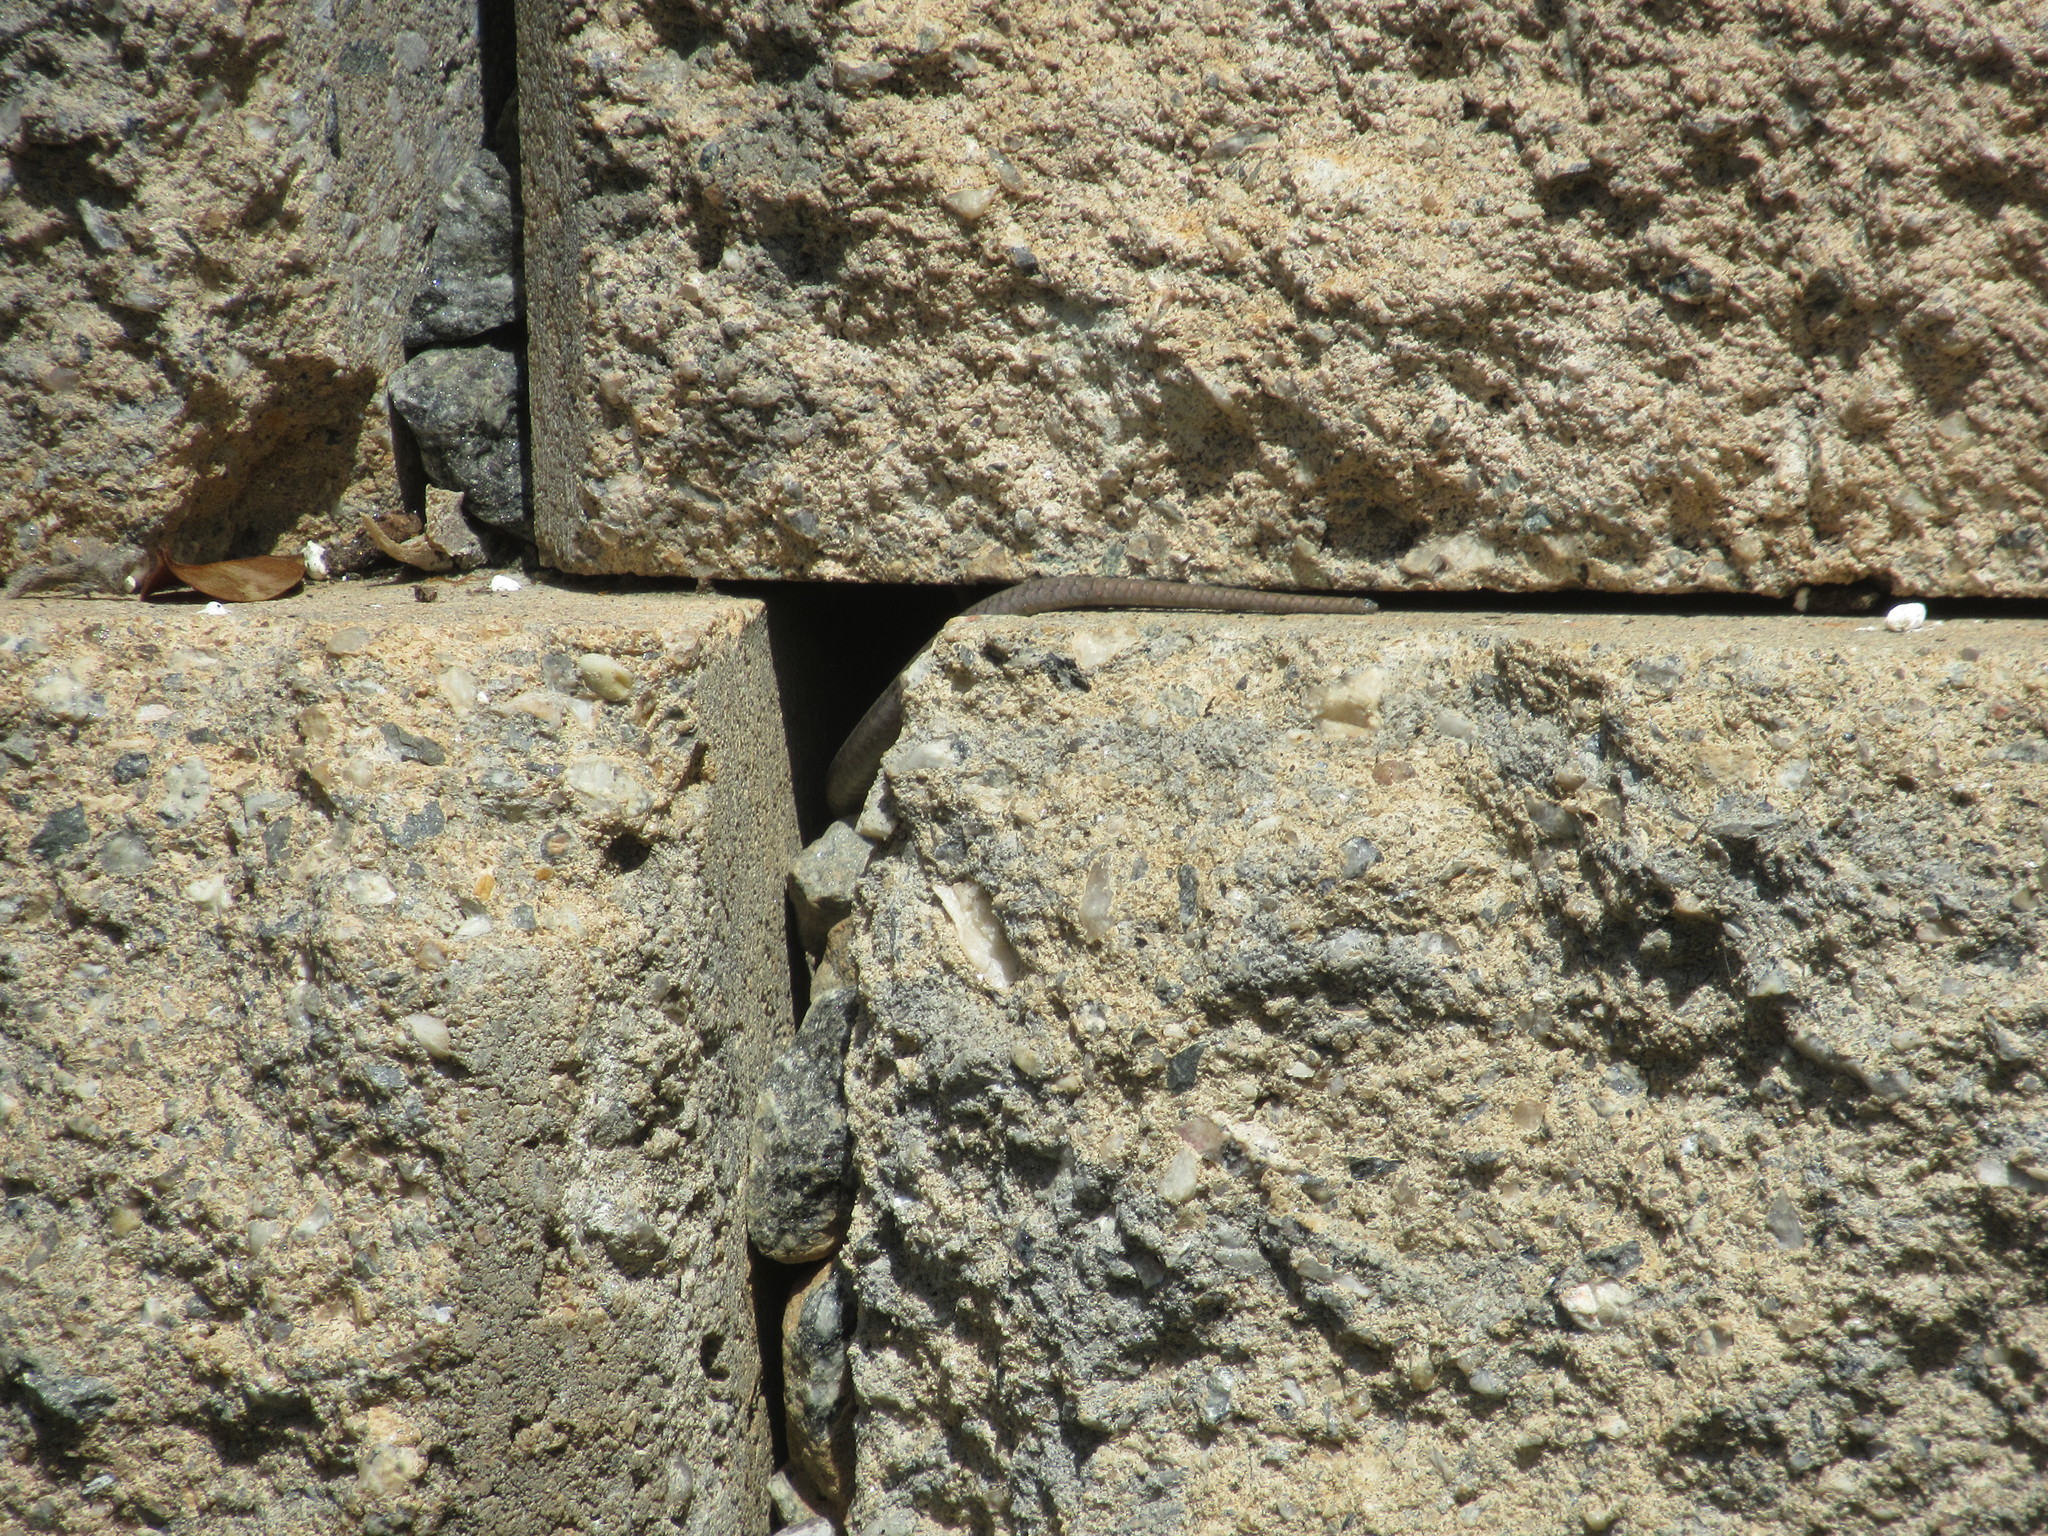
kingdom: Animalia
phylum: Chordata
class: Squamata
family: Scincidae
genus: Plestiodon
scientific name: Plestiodon fasciatus
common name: Five-lined skink
